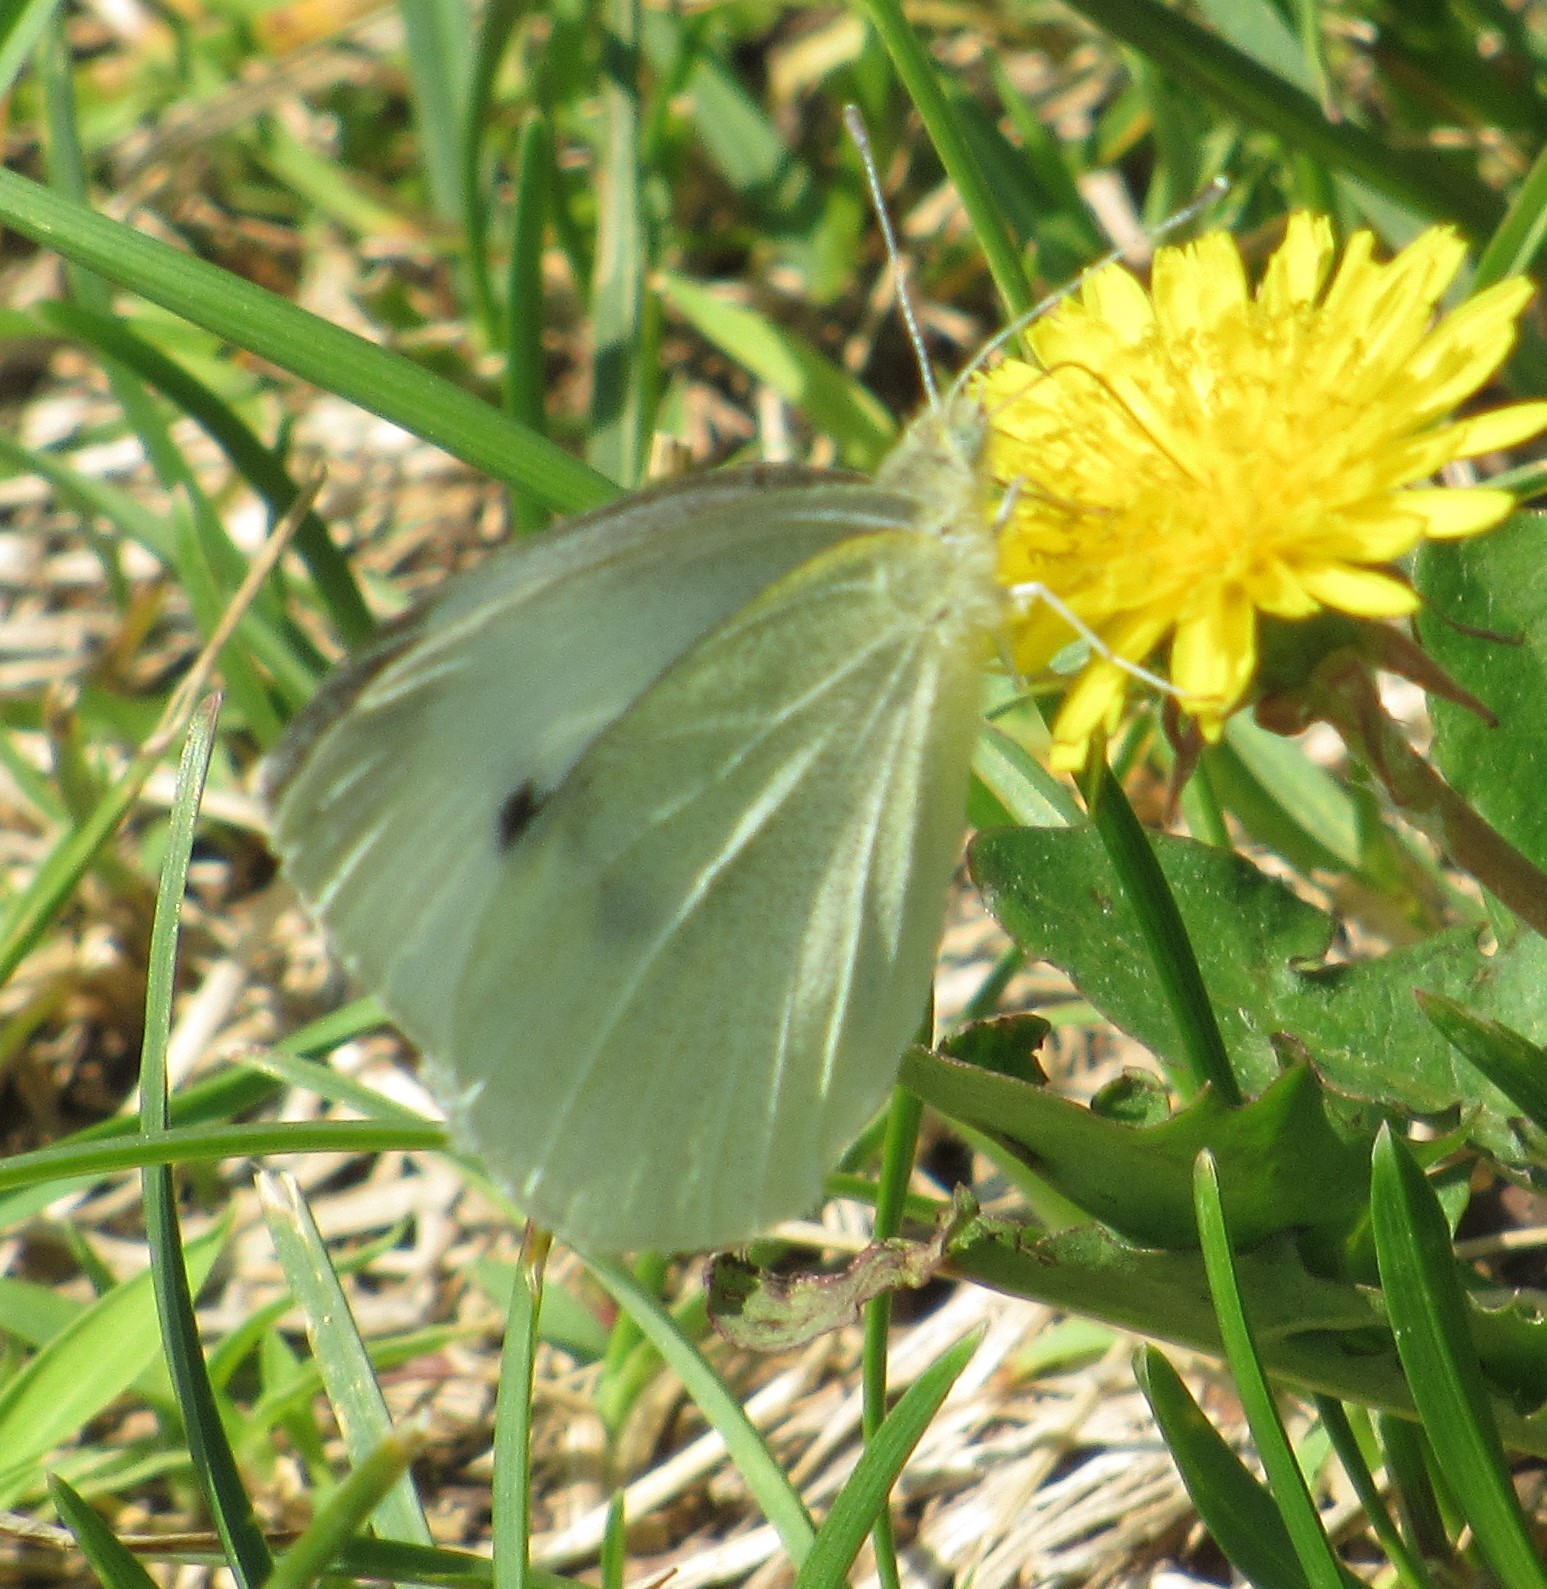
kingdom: Animalia
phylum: Arthropoda
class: Insecta
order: Lepidoptera
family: Pieridae
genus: Pieris
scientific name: Pieris rapae
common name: Small white
